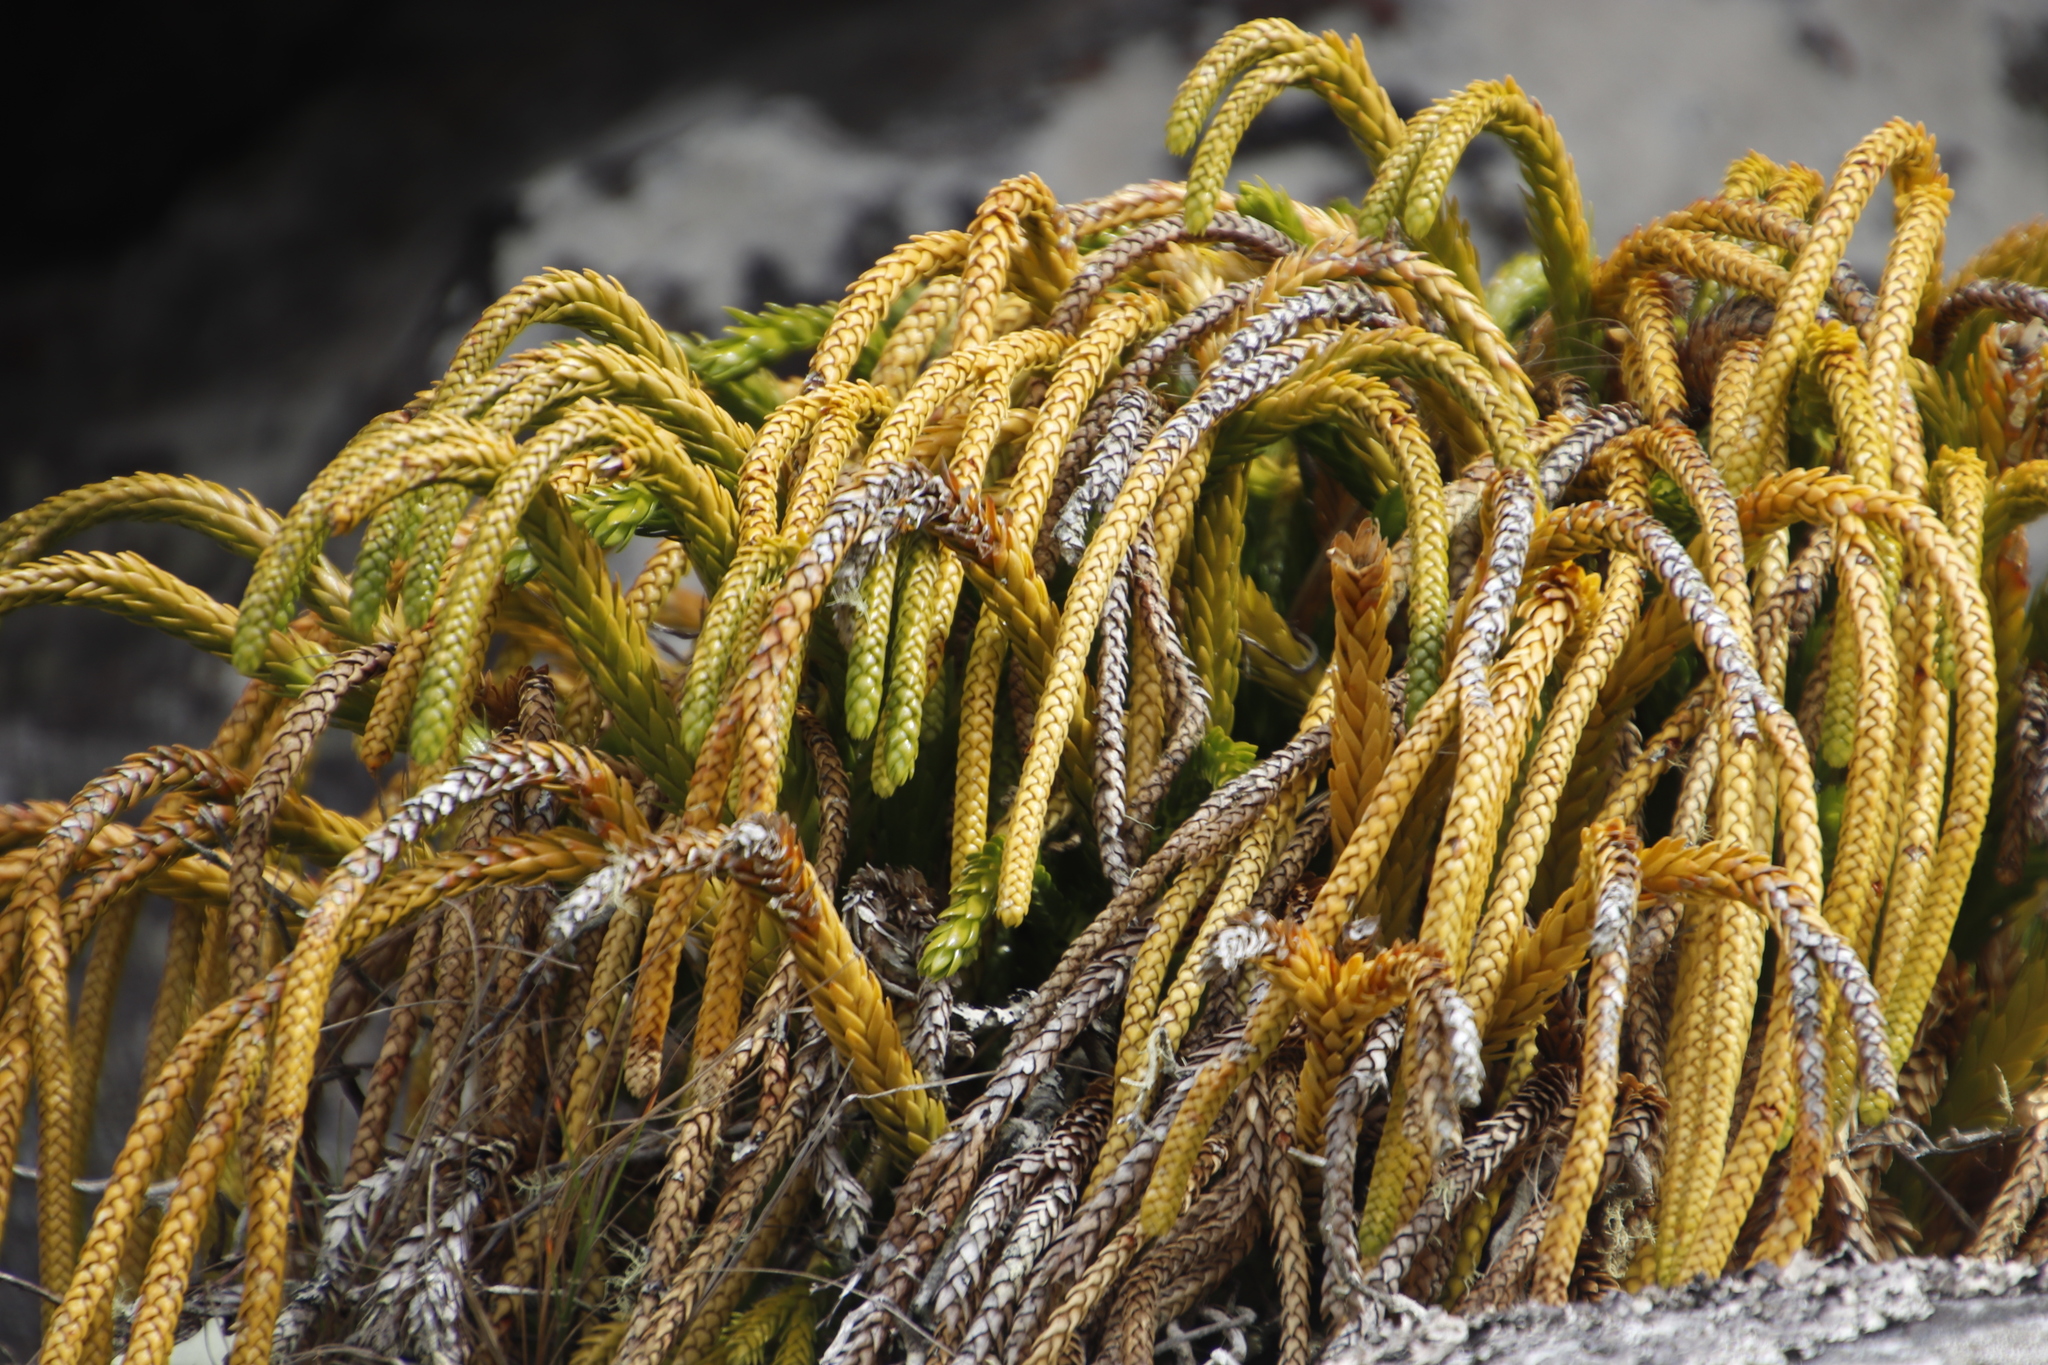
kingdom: Plantae
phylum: Tracheophyta
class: Lycopodiopsida
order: Lycopodiales
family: Lycopodiaceae
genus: Phlegmariurus
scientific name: Phlegmariurus gnidioides
